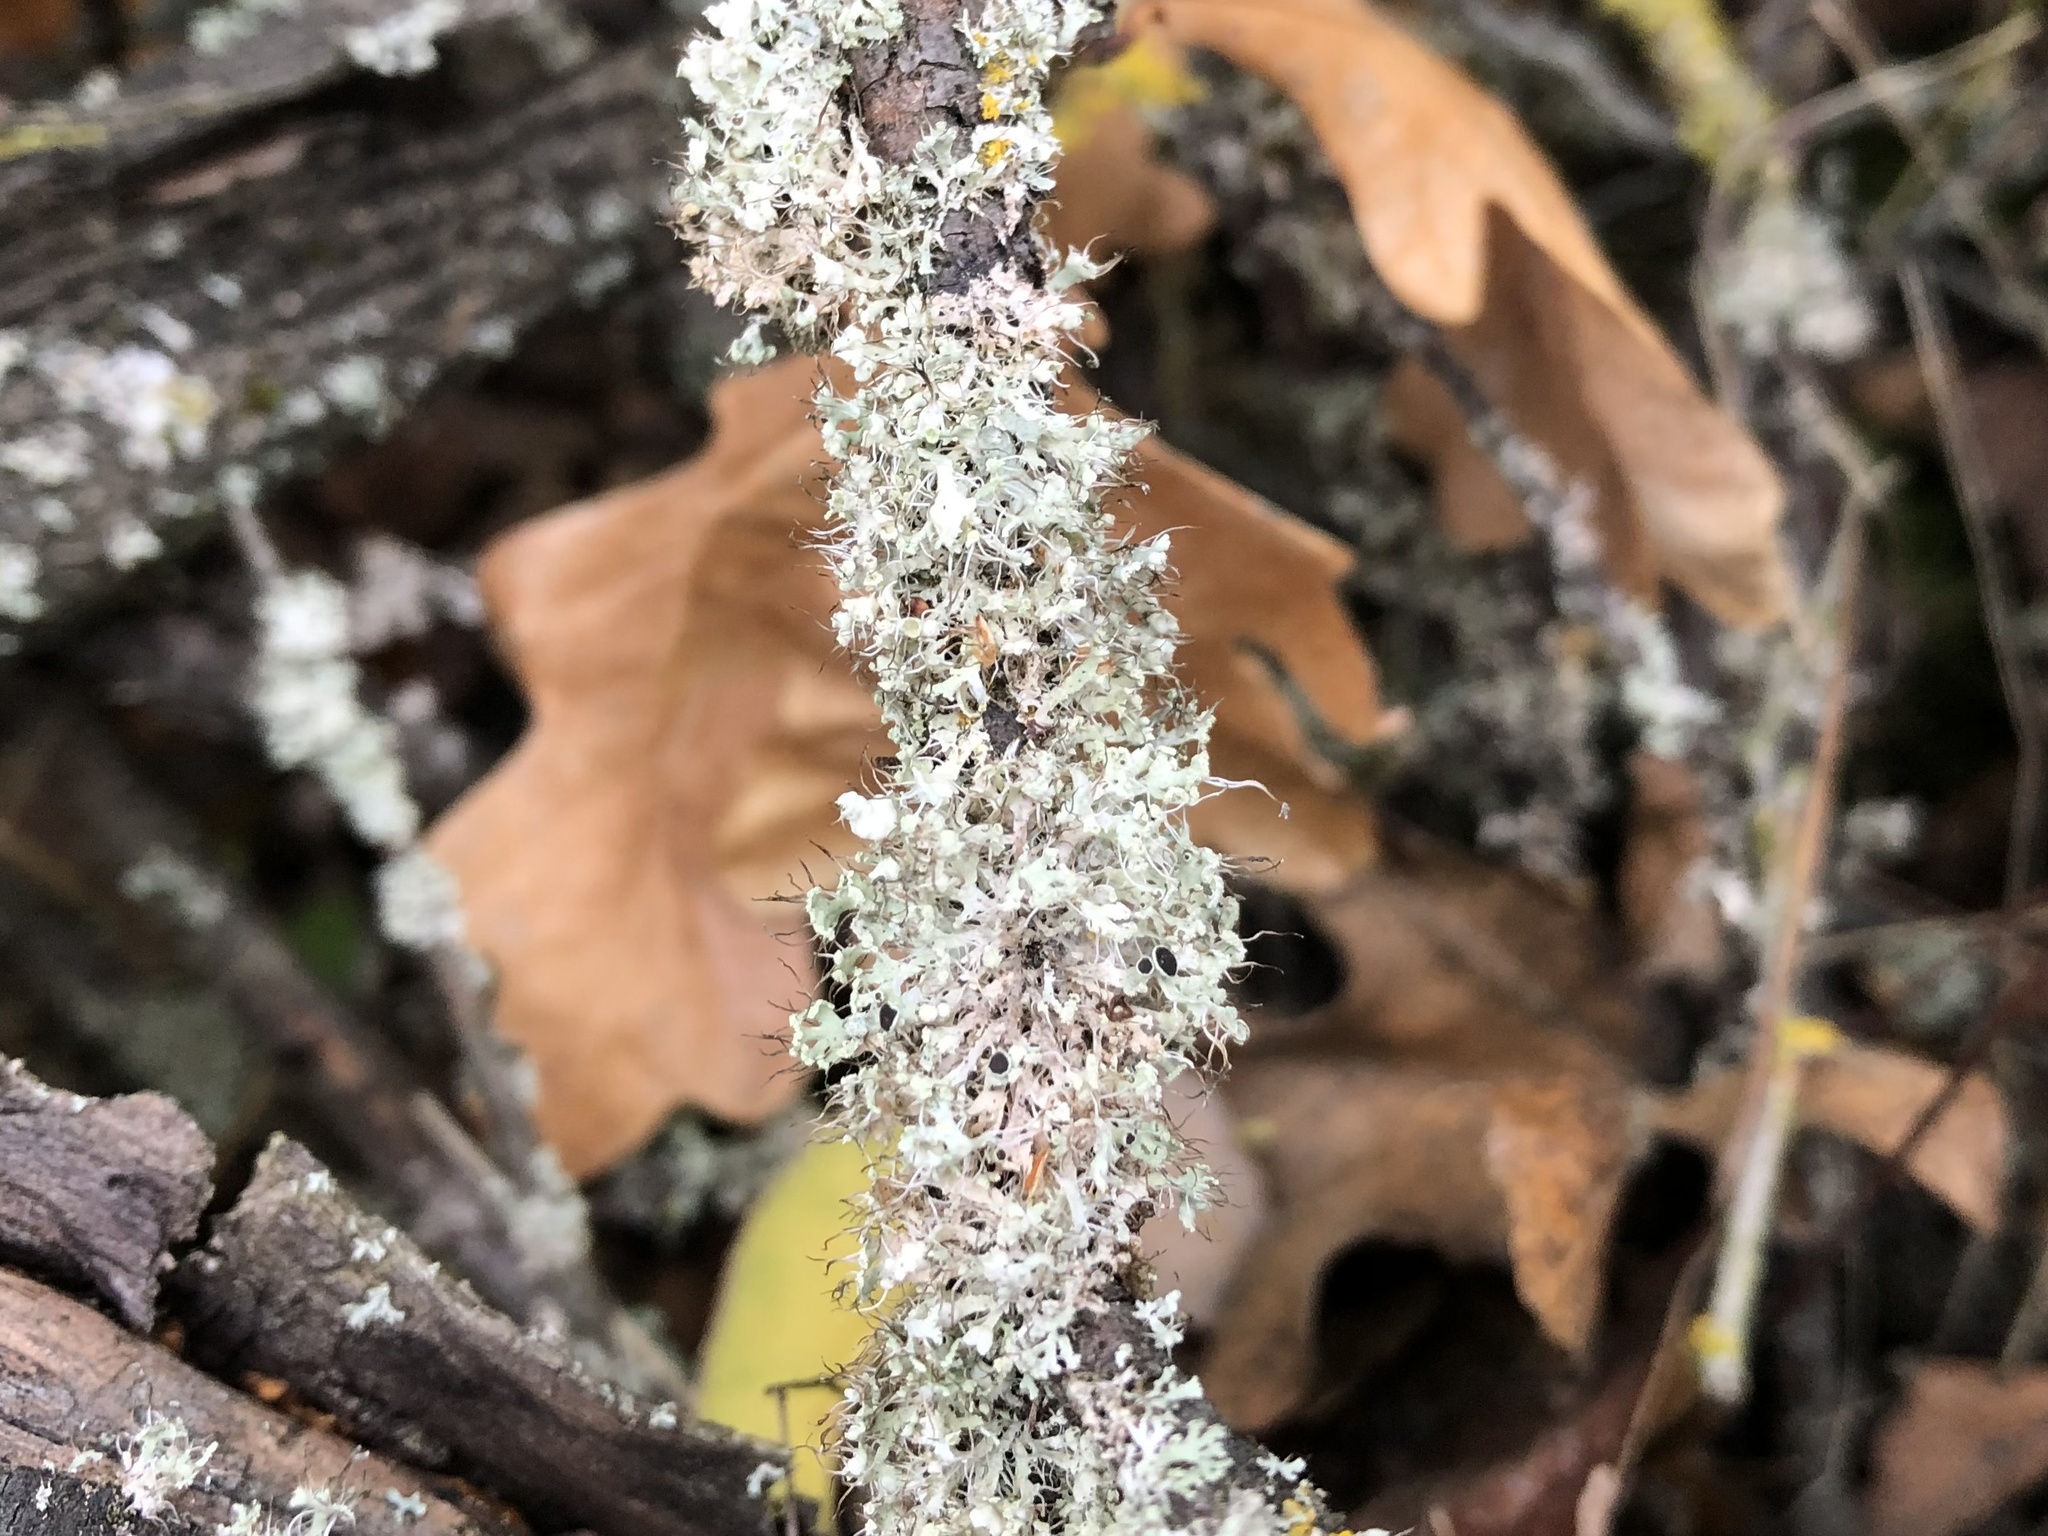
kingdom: Fungi
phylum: Ascomycota
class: Lecanoromycetes
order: Caliciales
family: Physciaceae
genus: Physcia
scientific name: Physcia adscendens
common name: Hooded rosette lichen
